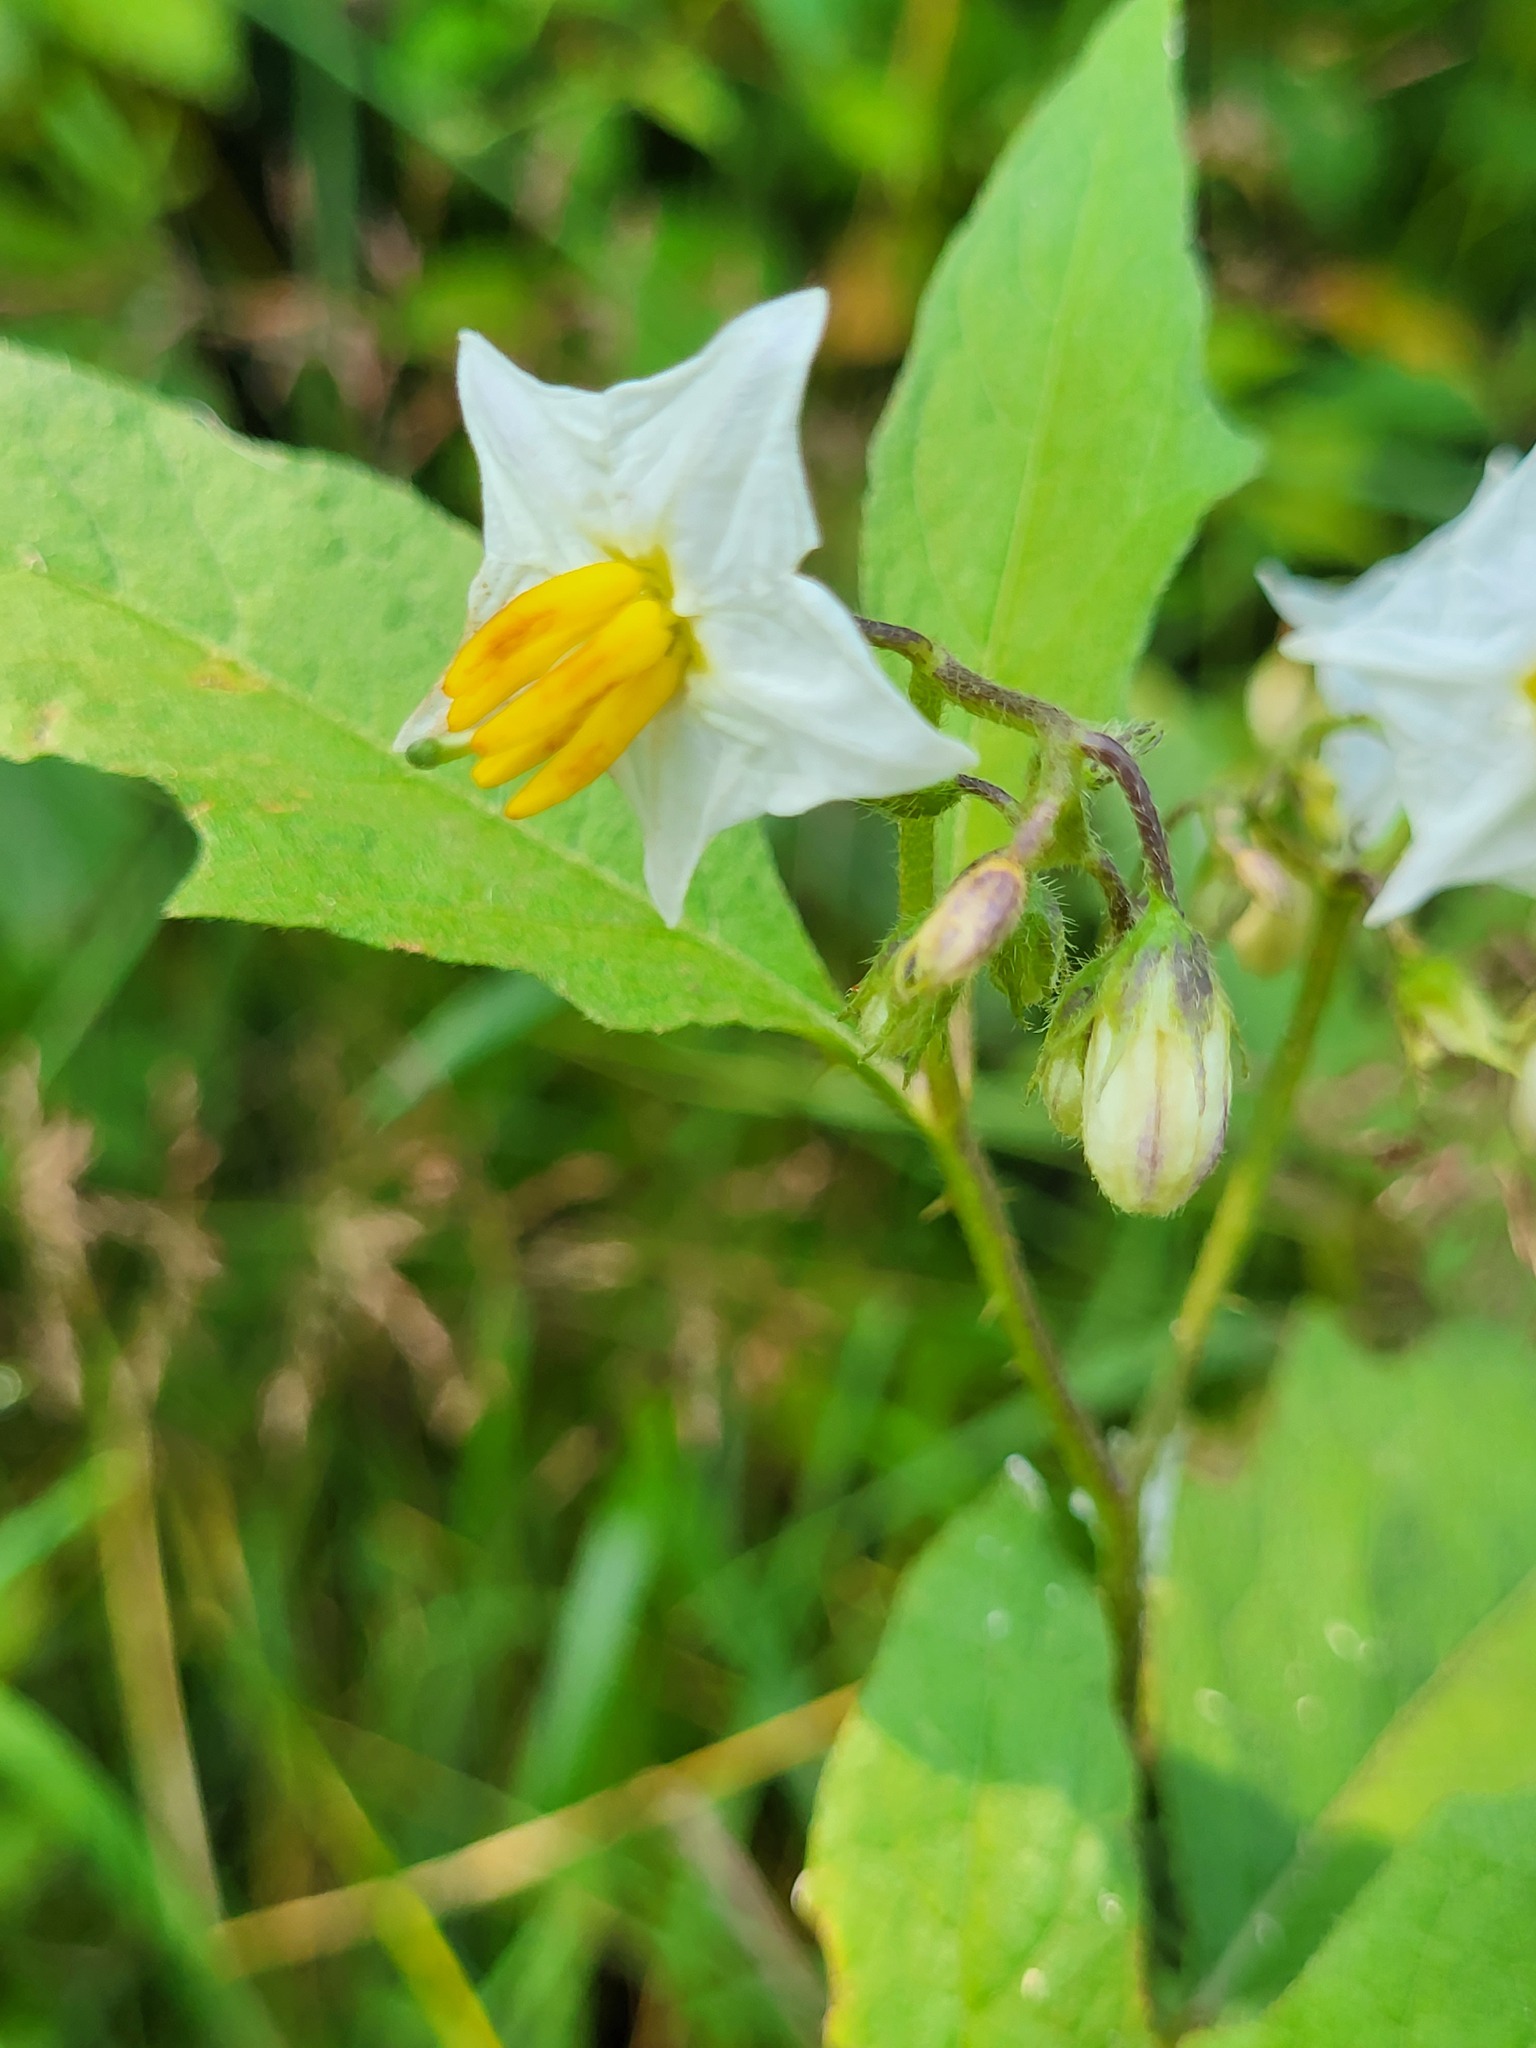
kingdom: Plantae
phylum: Tracheophyta
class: Magnoliopsida
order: Solanales
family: Solanaceae
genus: Solanum
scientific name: Solanum carolinense
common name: Horse-nettle
